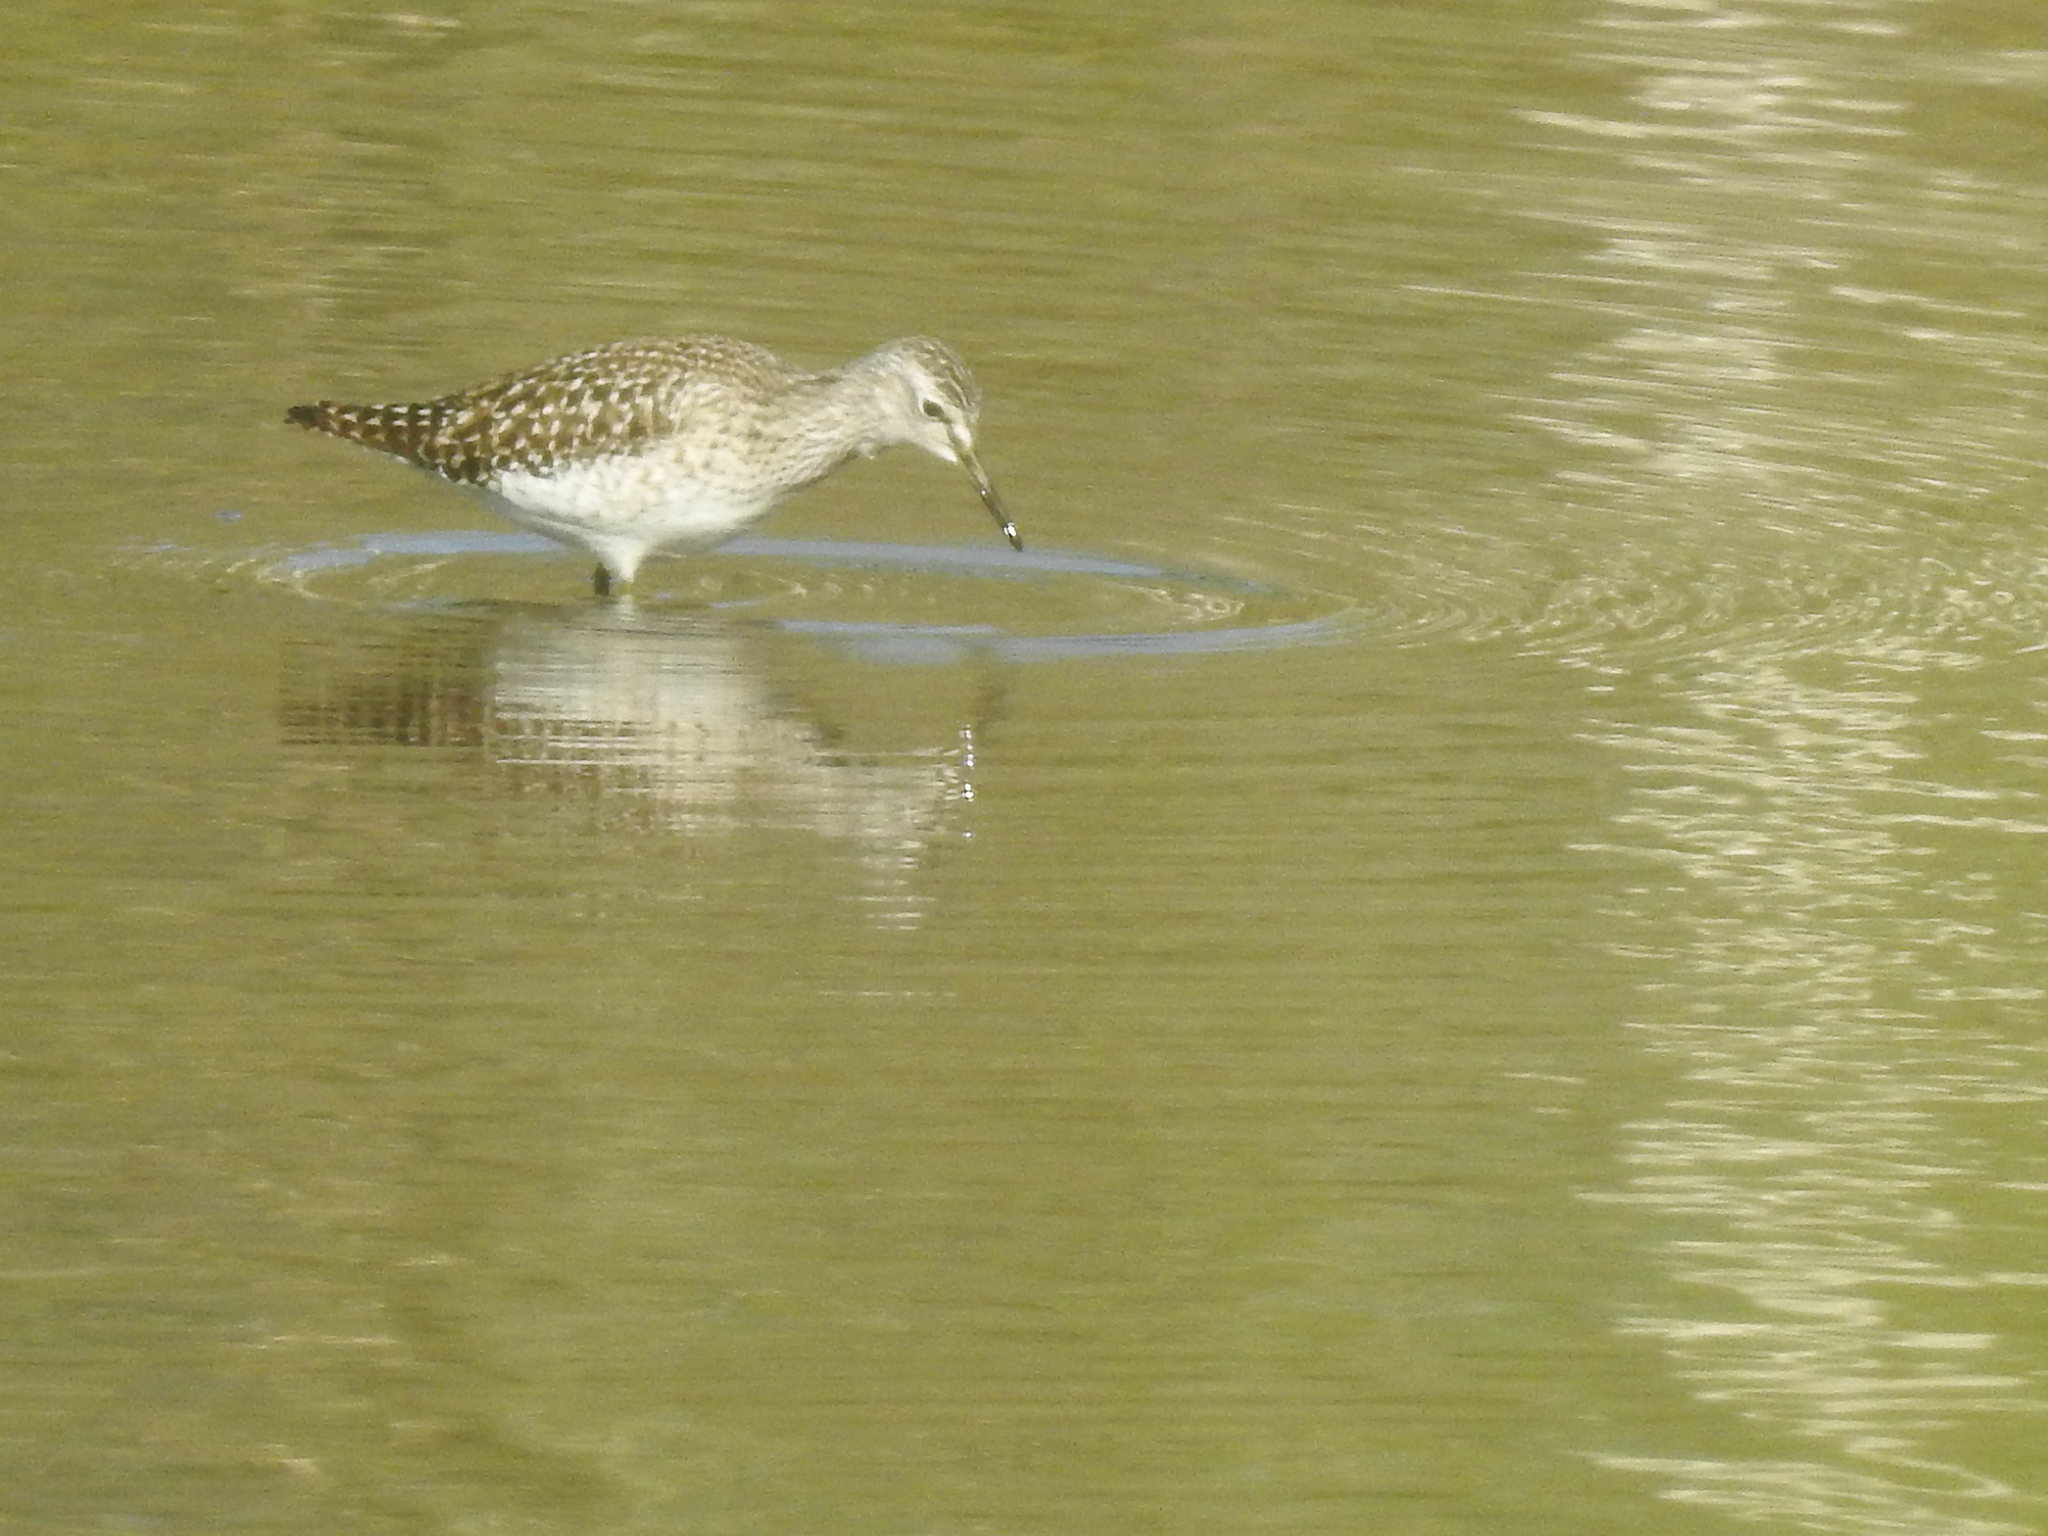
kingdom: Animalia
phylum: Chordata
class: Aves
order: Charadriiformes
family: Scolopacidae
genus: Tringa
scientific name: Tringa glareola
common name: Wood sandpiper
